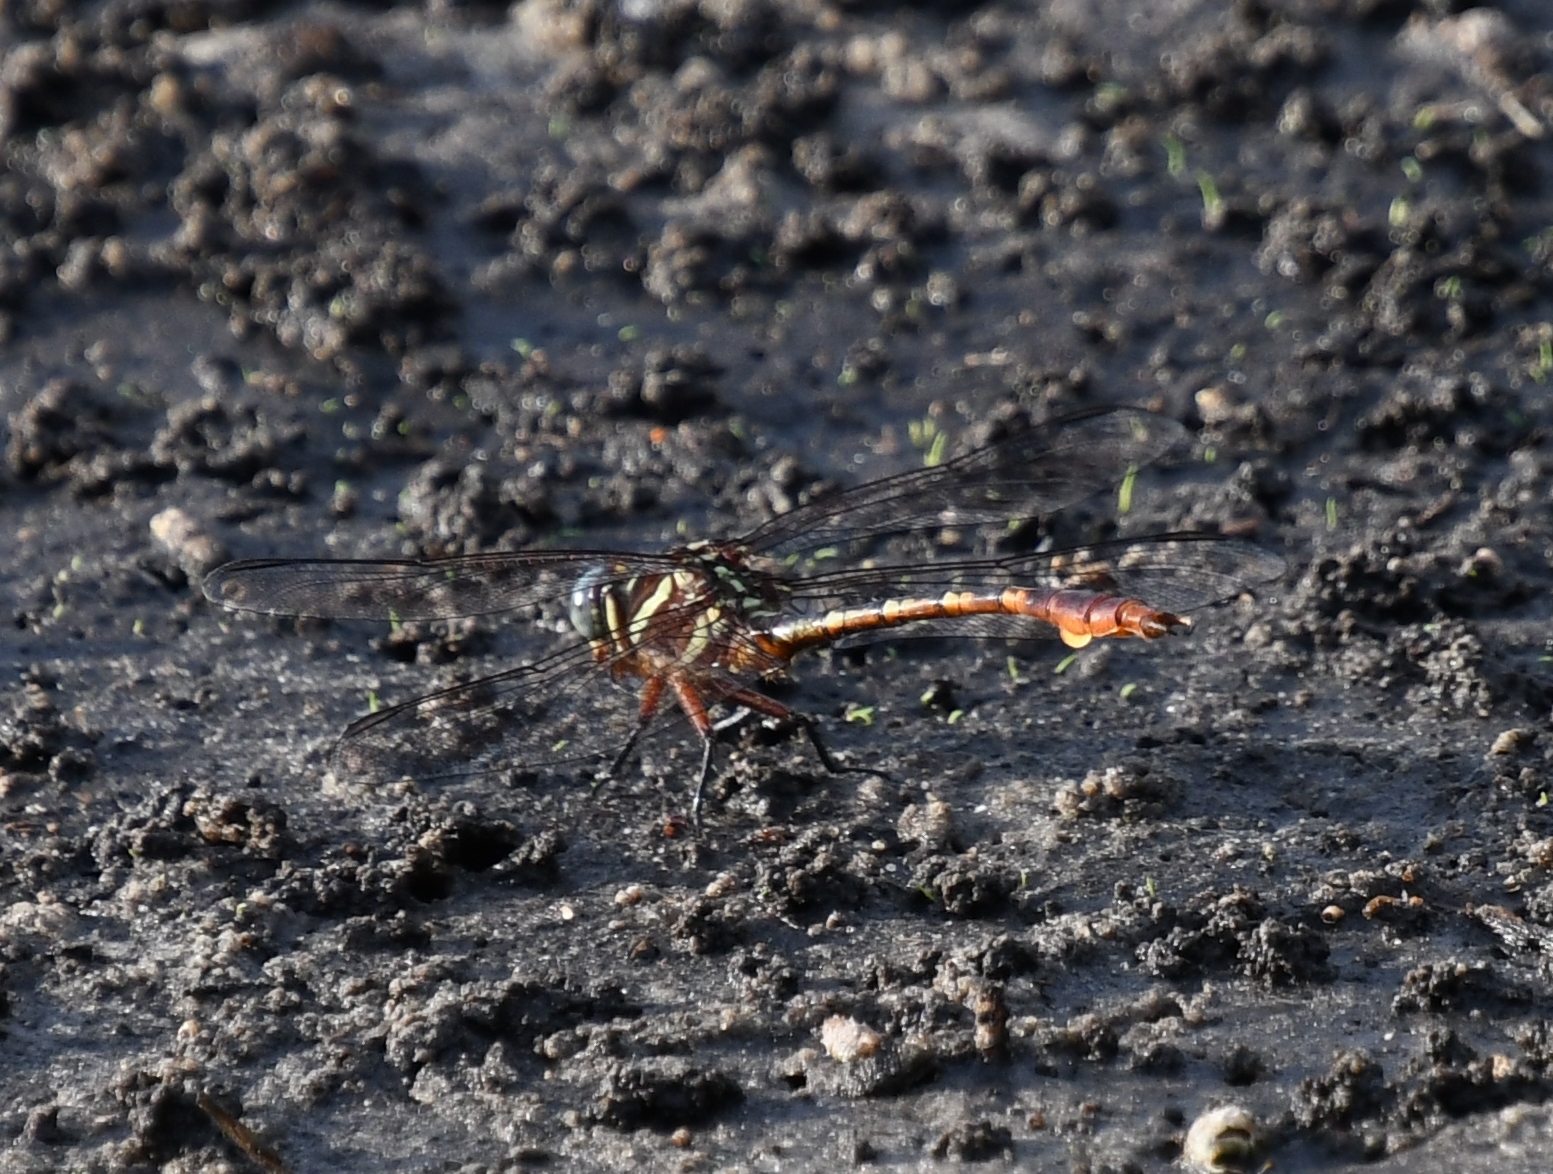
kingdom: Animalia
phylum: Arthropoda
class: Insecta
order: Odonata
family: Gomphidae
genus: Aphylla
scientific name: Aphylla williamsoni
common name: Two-striped forceptail
